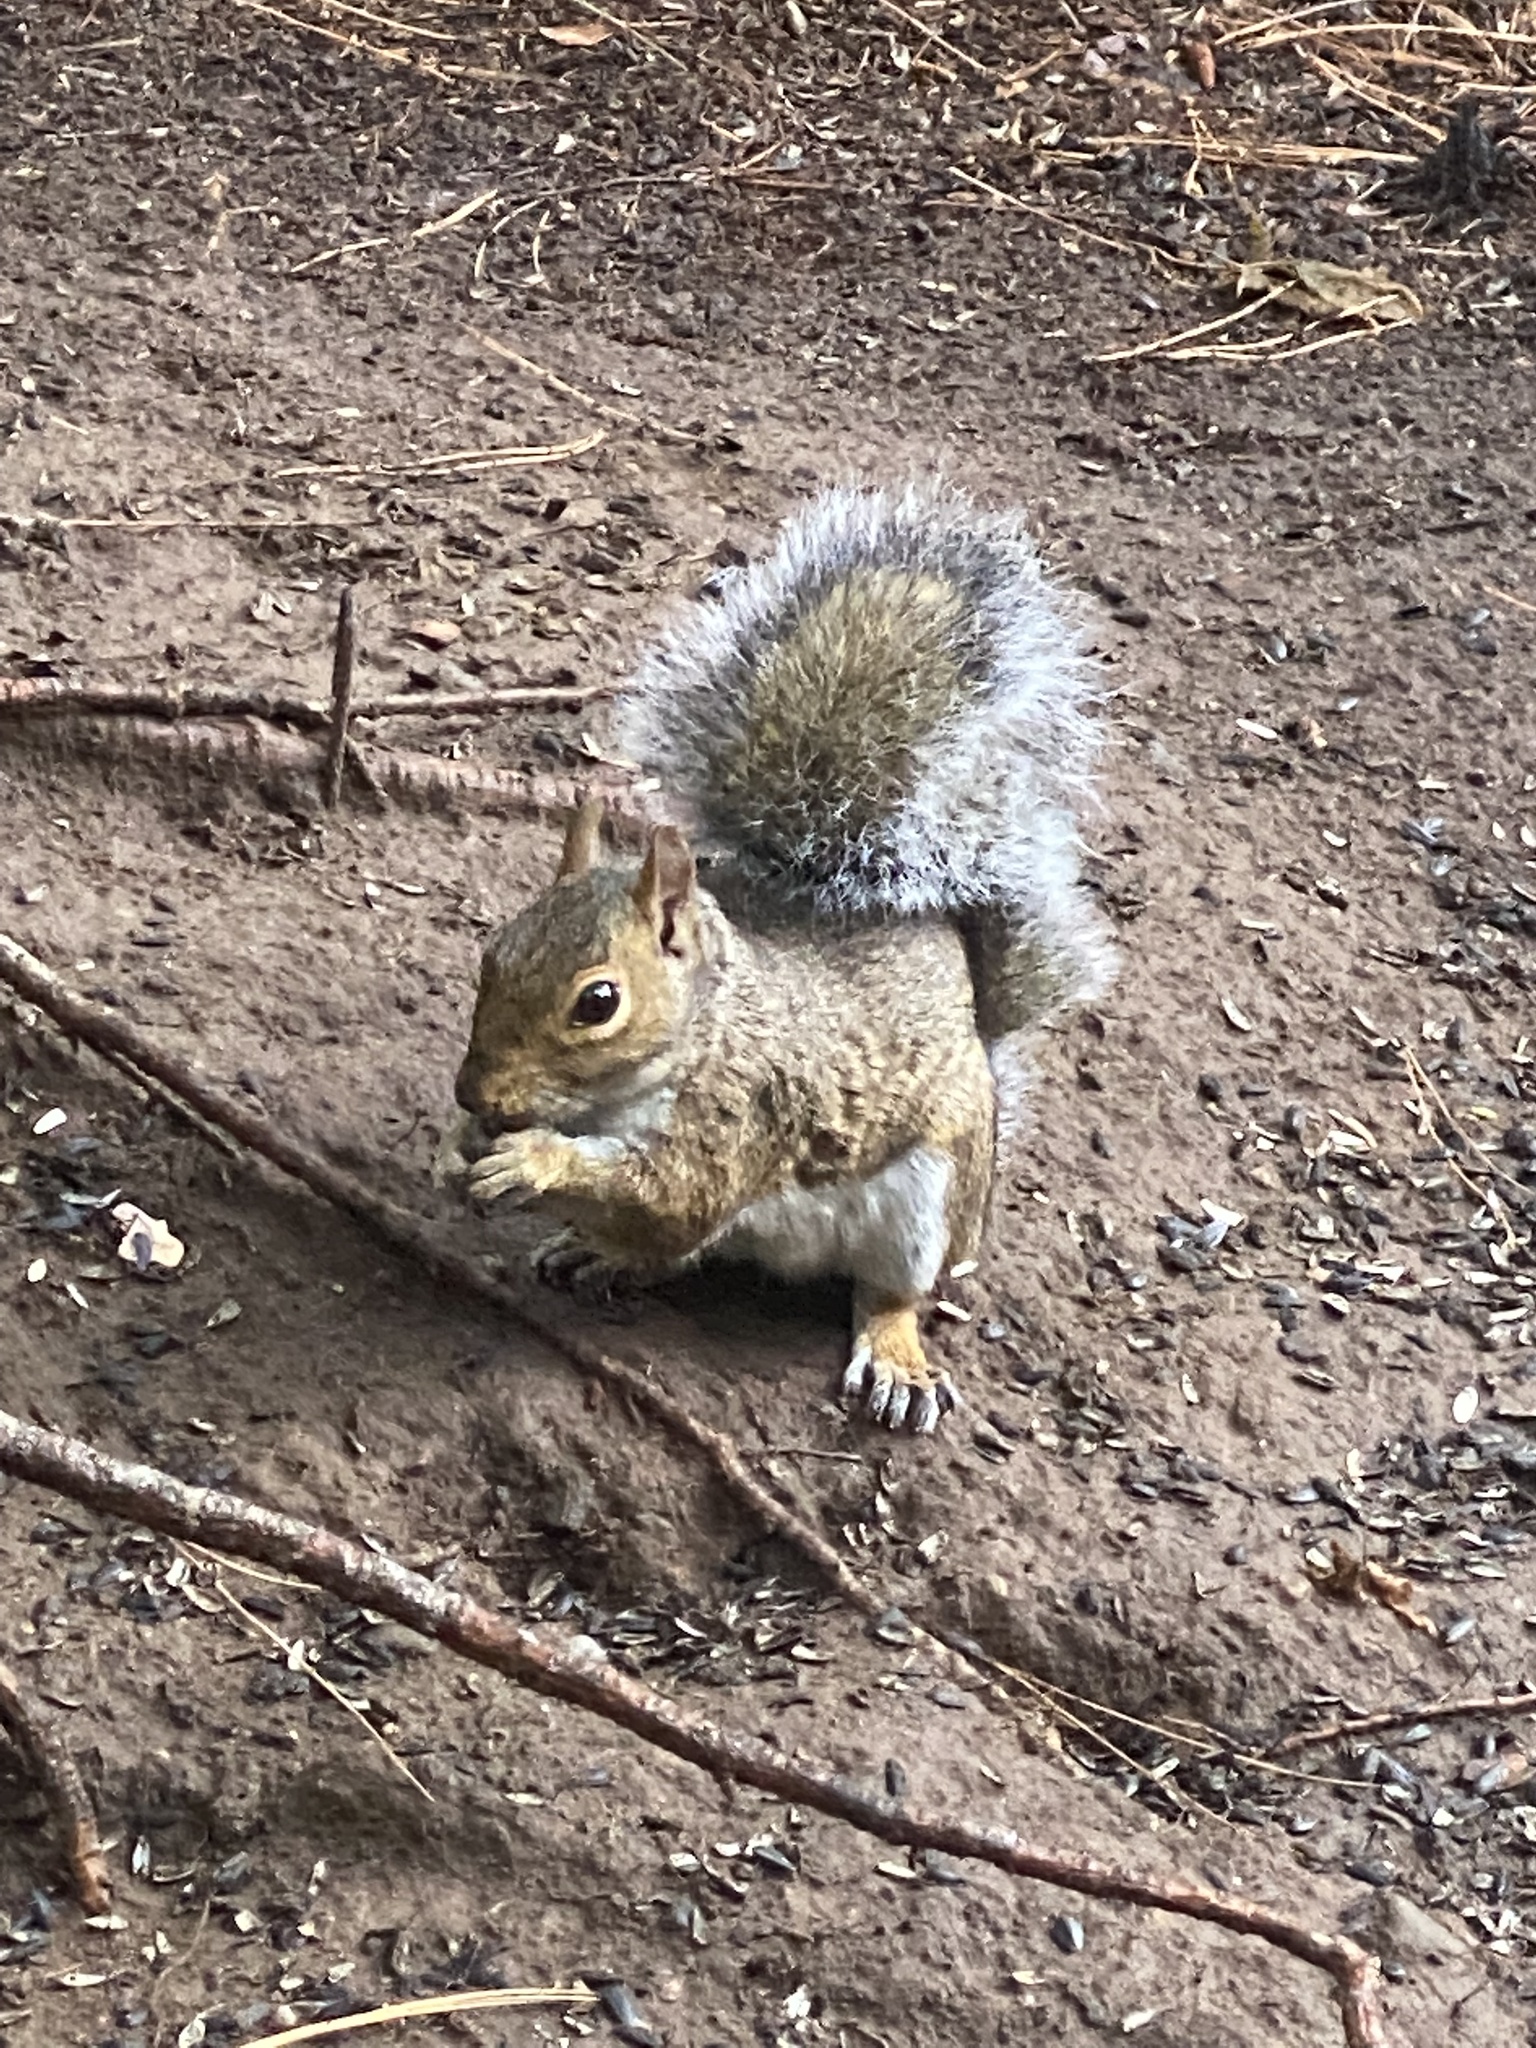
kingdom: Animalia
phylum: Chordata
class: Mammalia
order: Rodentia
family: Sciuridae
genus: Sciurus
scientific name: Sciurus carolinensis
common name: Eastern gray squirrel
